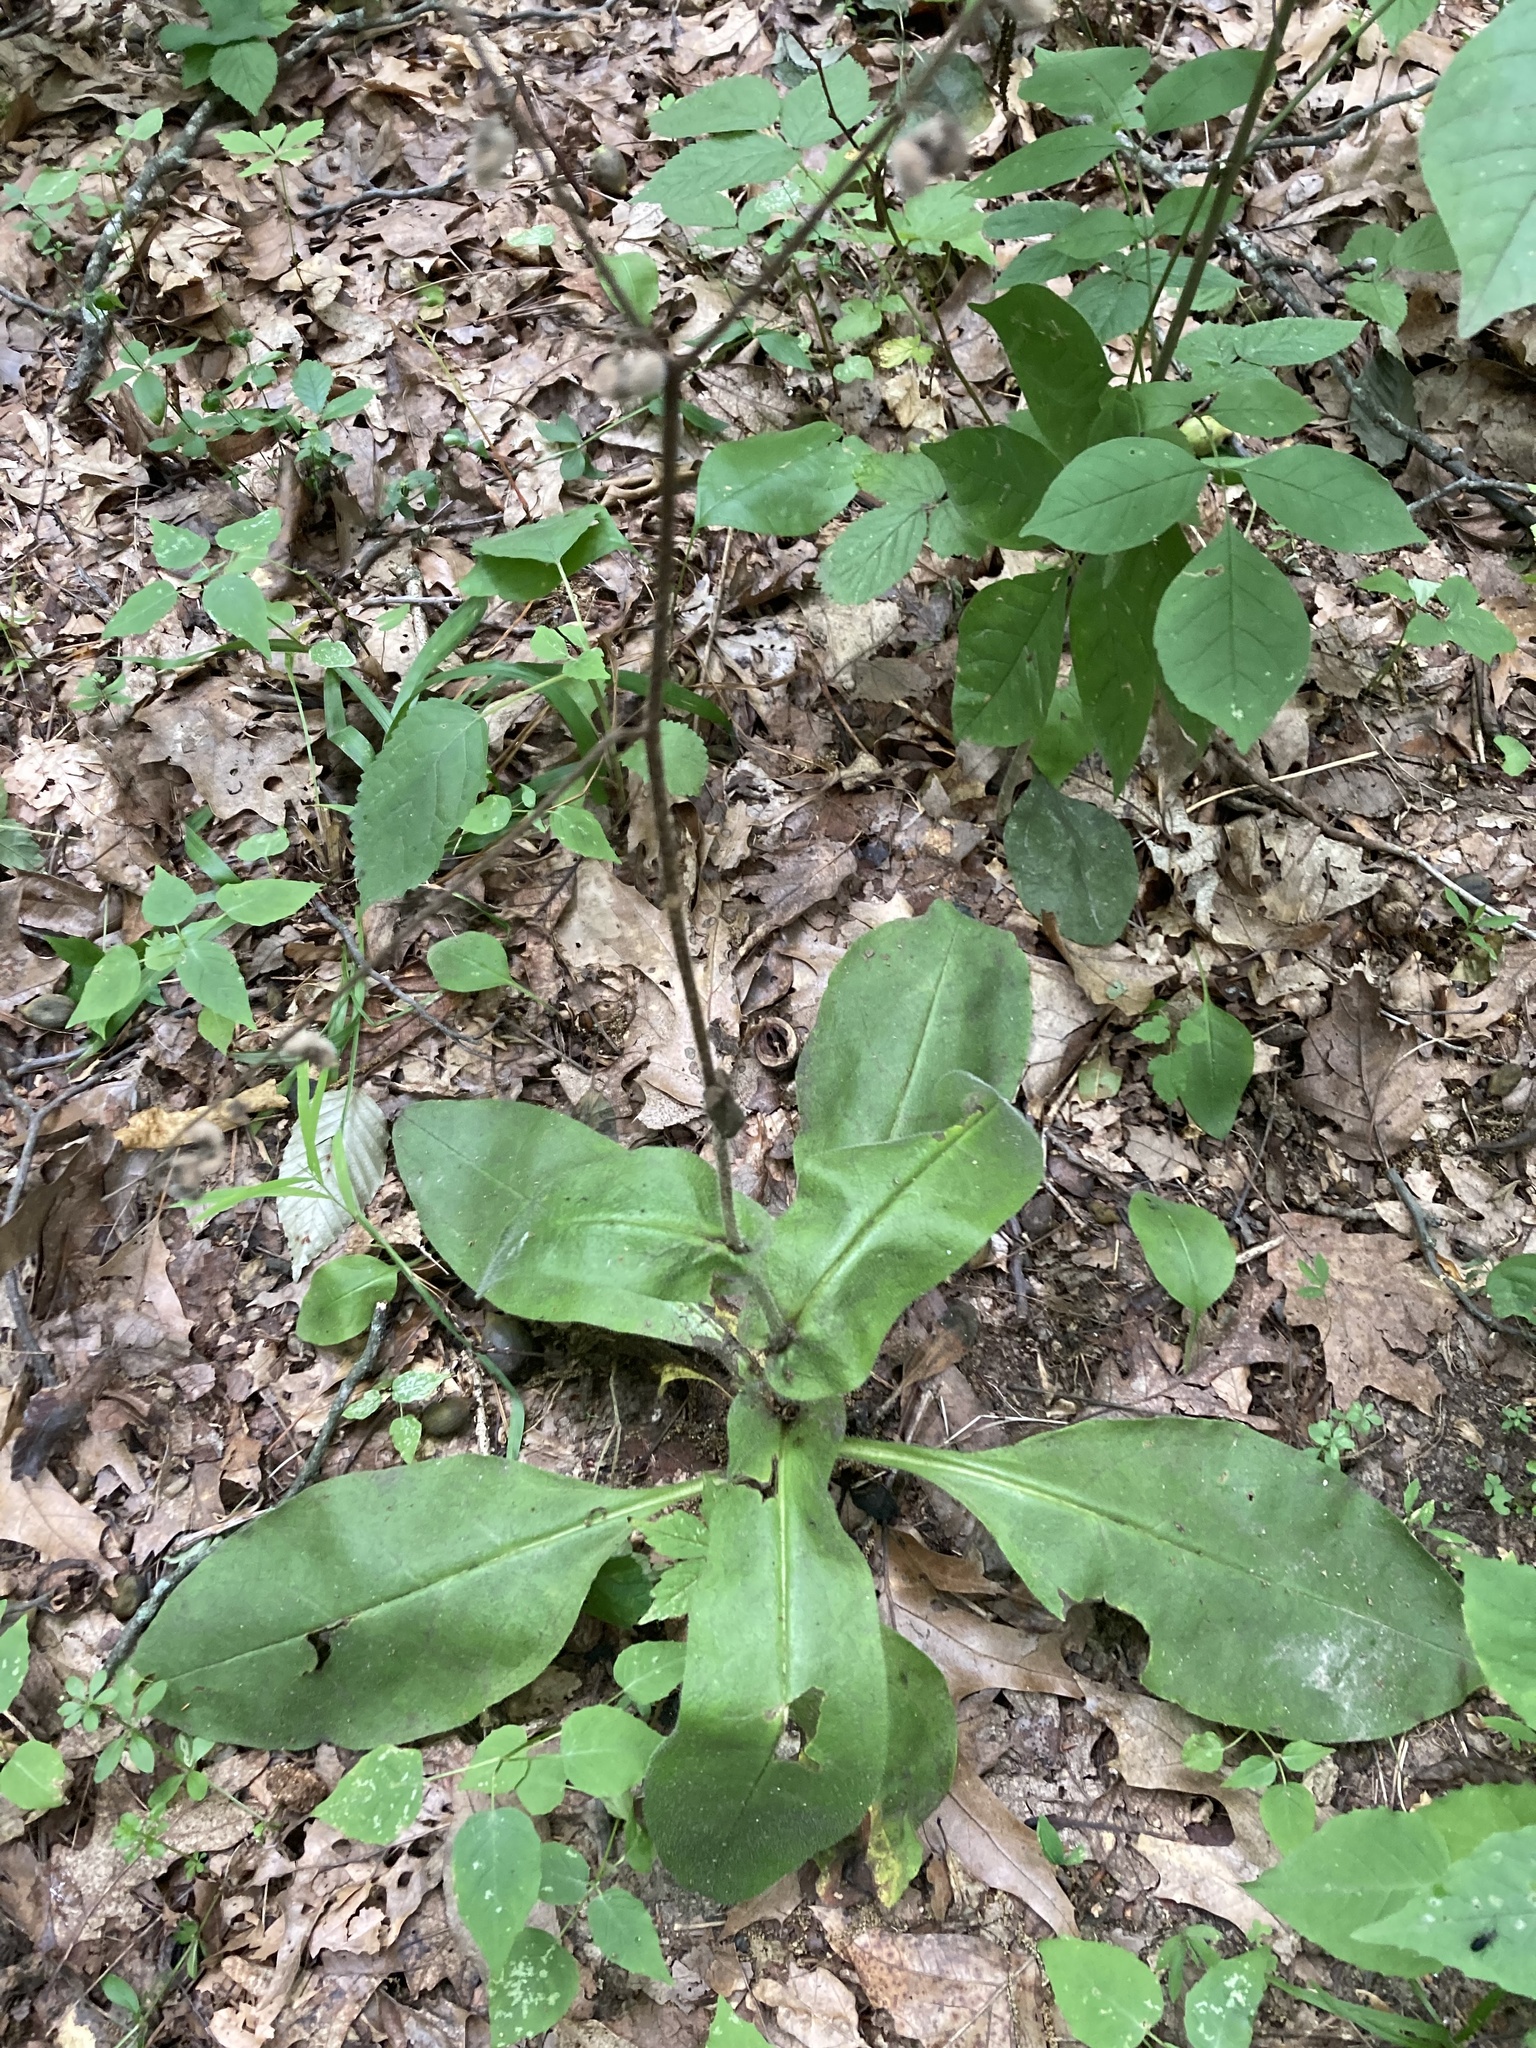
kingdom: Plantae
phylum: Tracheophyta
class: Magnoliopsida
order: Boraginales
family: Boraginaceae
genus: Andersonglossum
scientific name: Andersonglossum virginianum
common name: Wild comfrey
